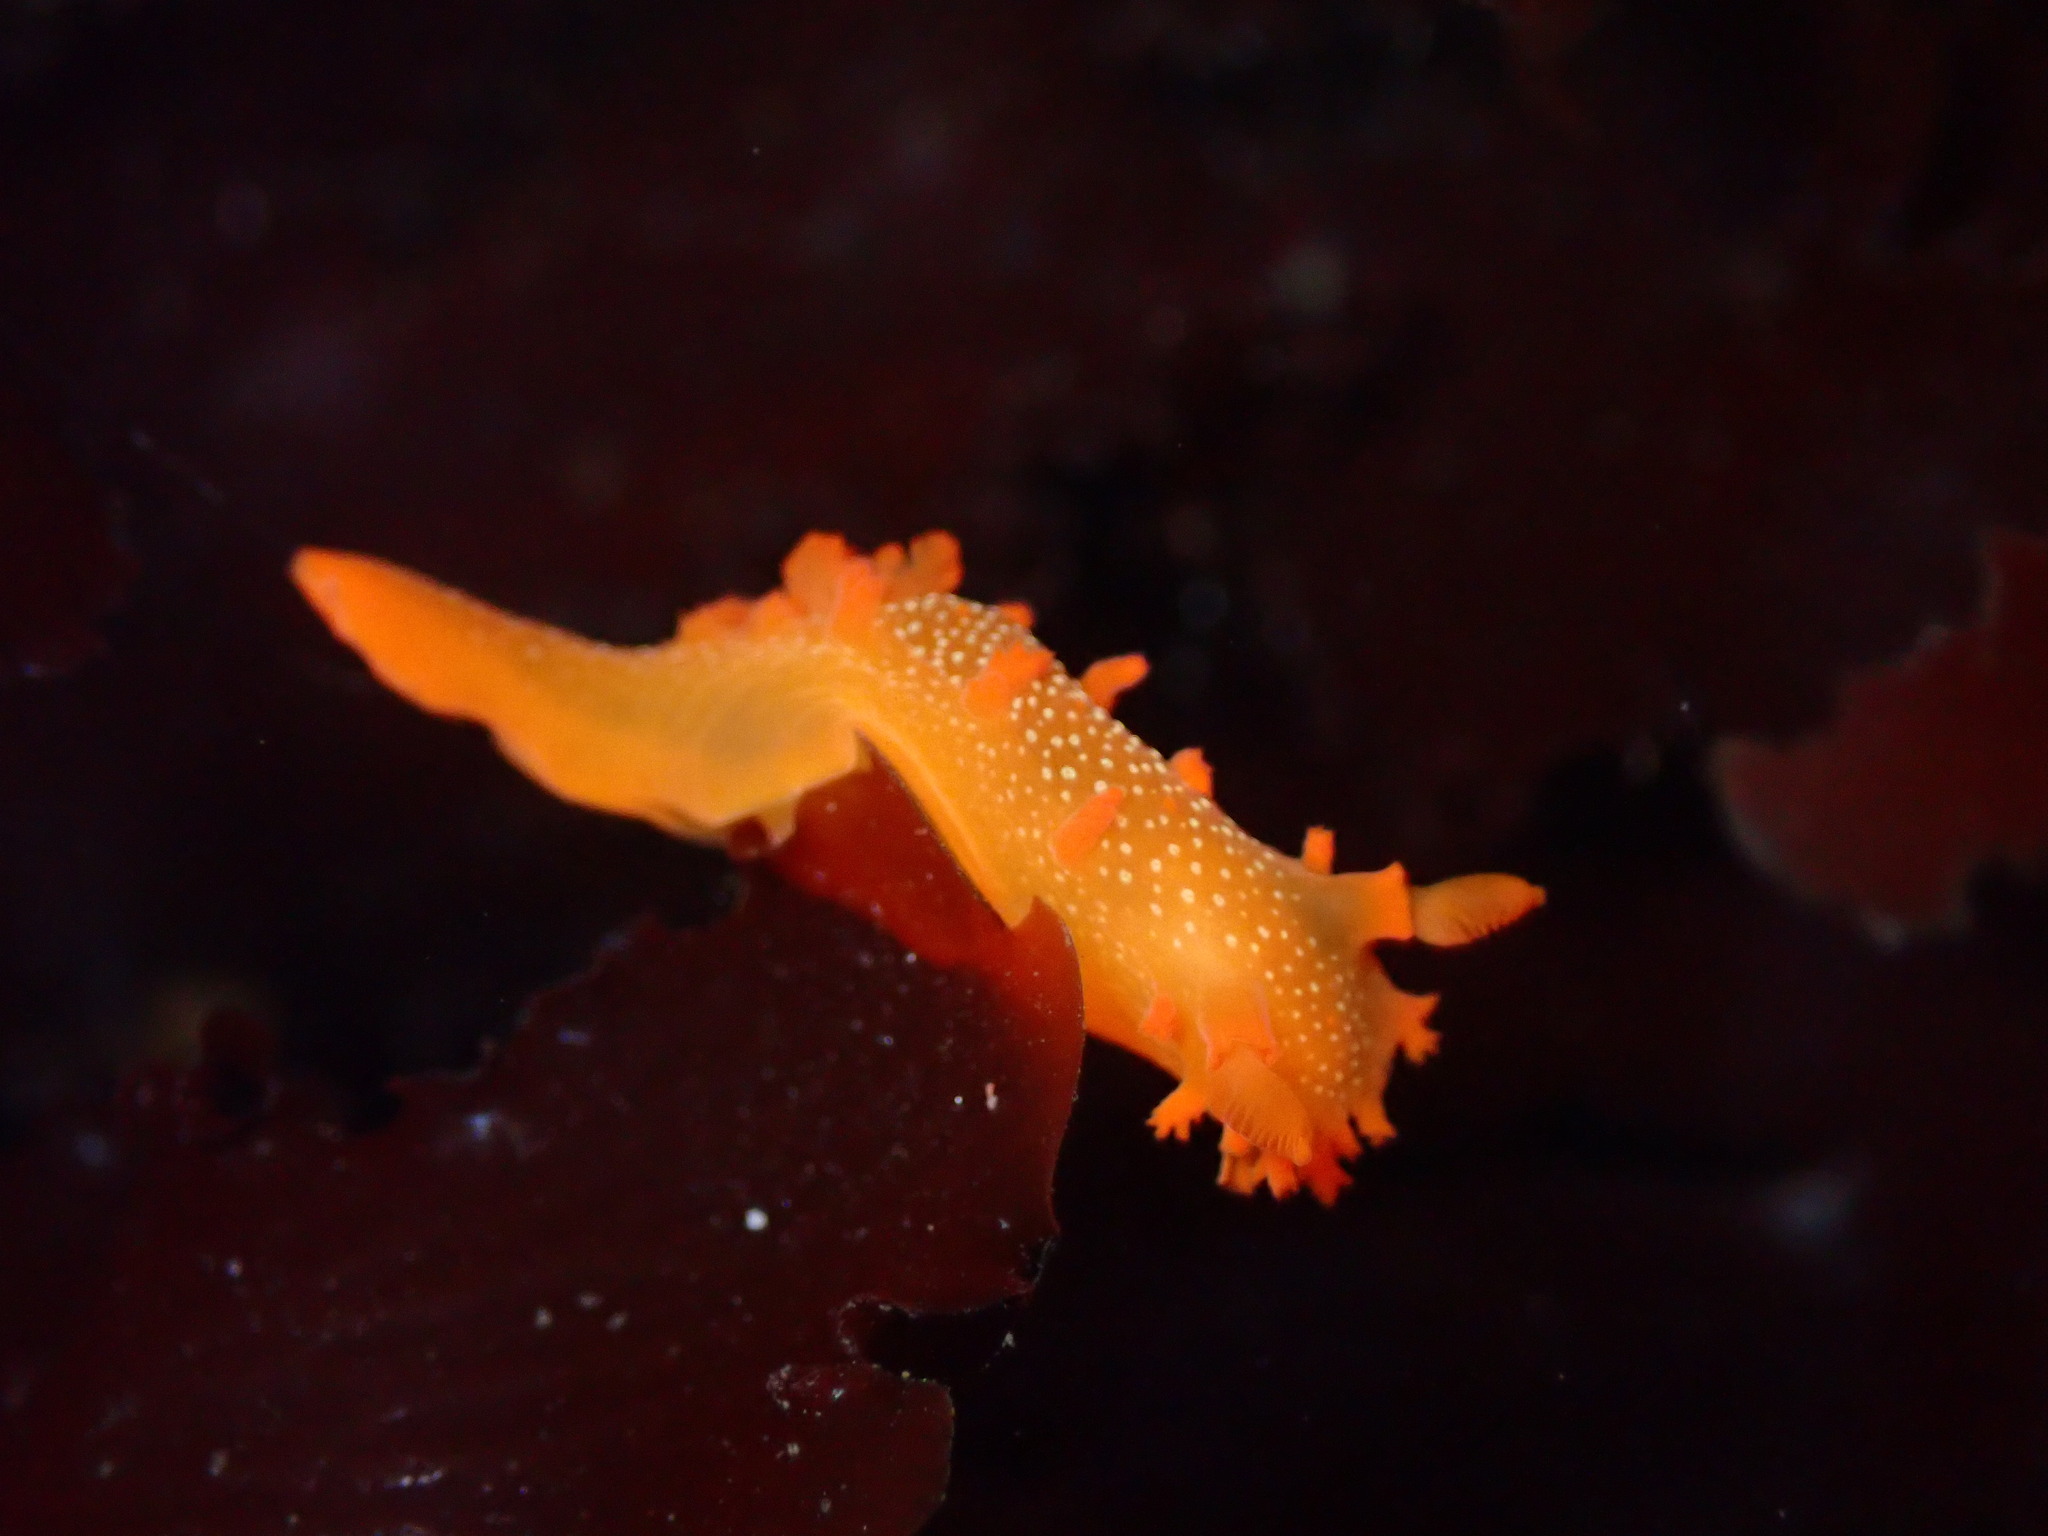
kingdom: Animalia
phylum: Mollusca
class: Gastropoda
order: Nudibranchia
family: Polyceridae
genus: Triopha
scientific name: Triopha maculata
